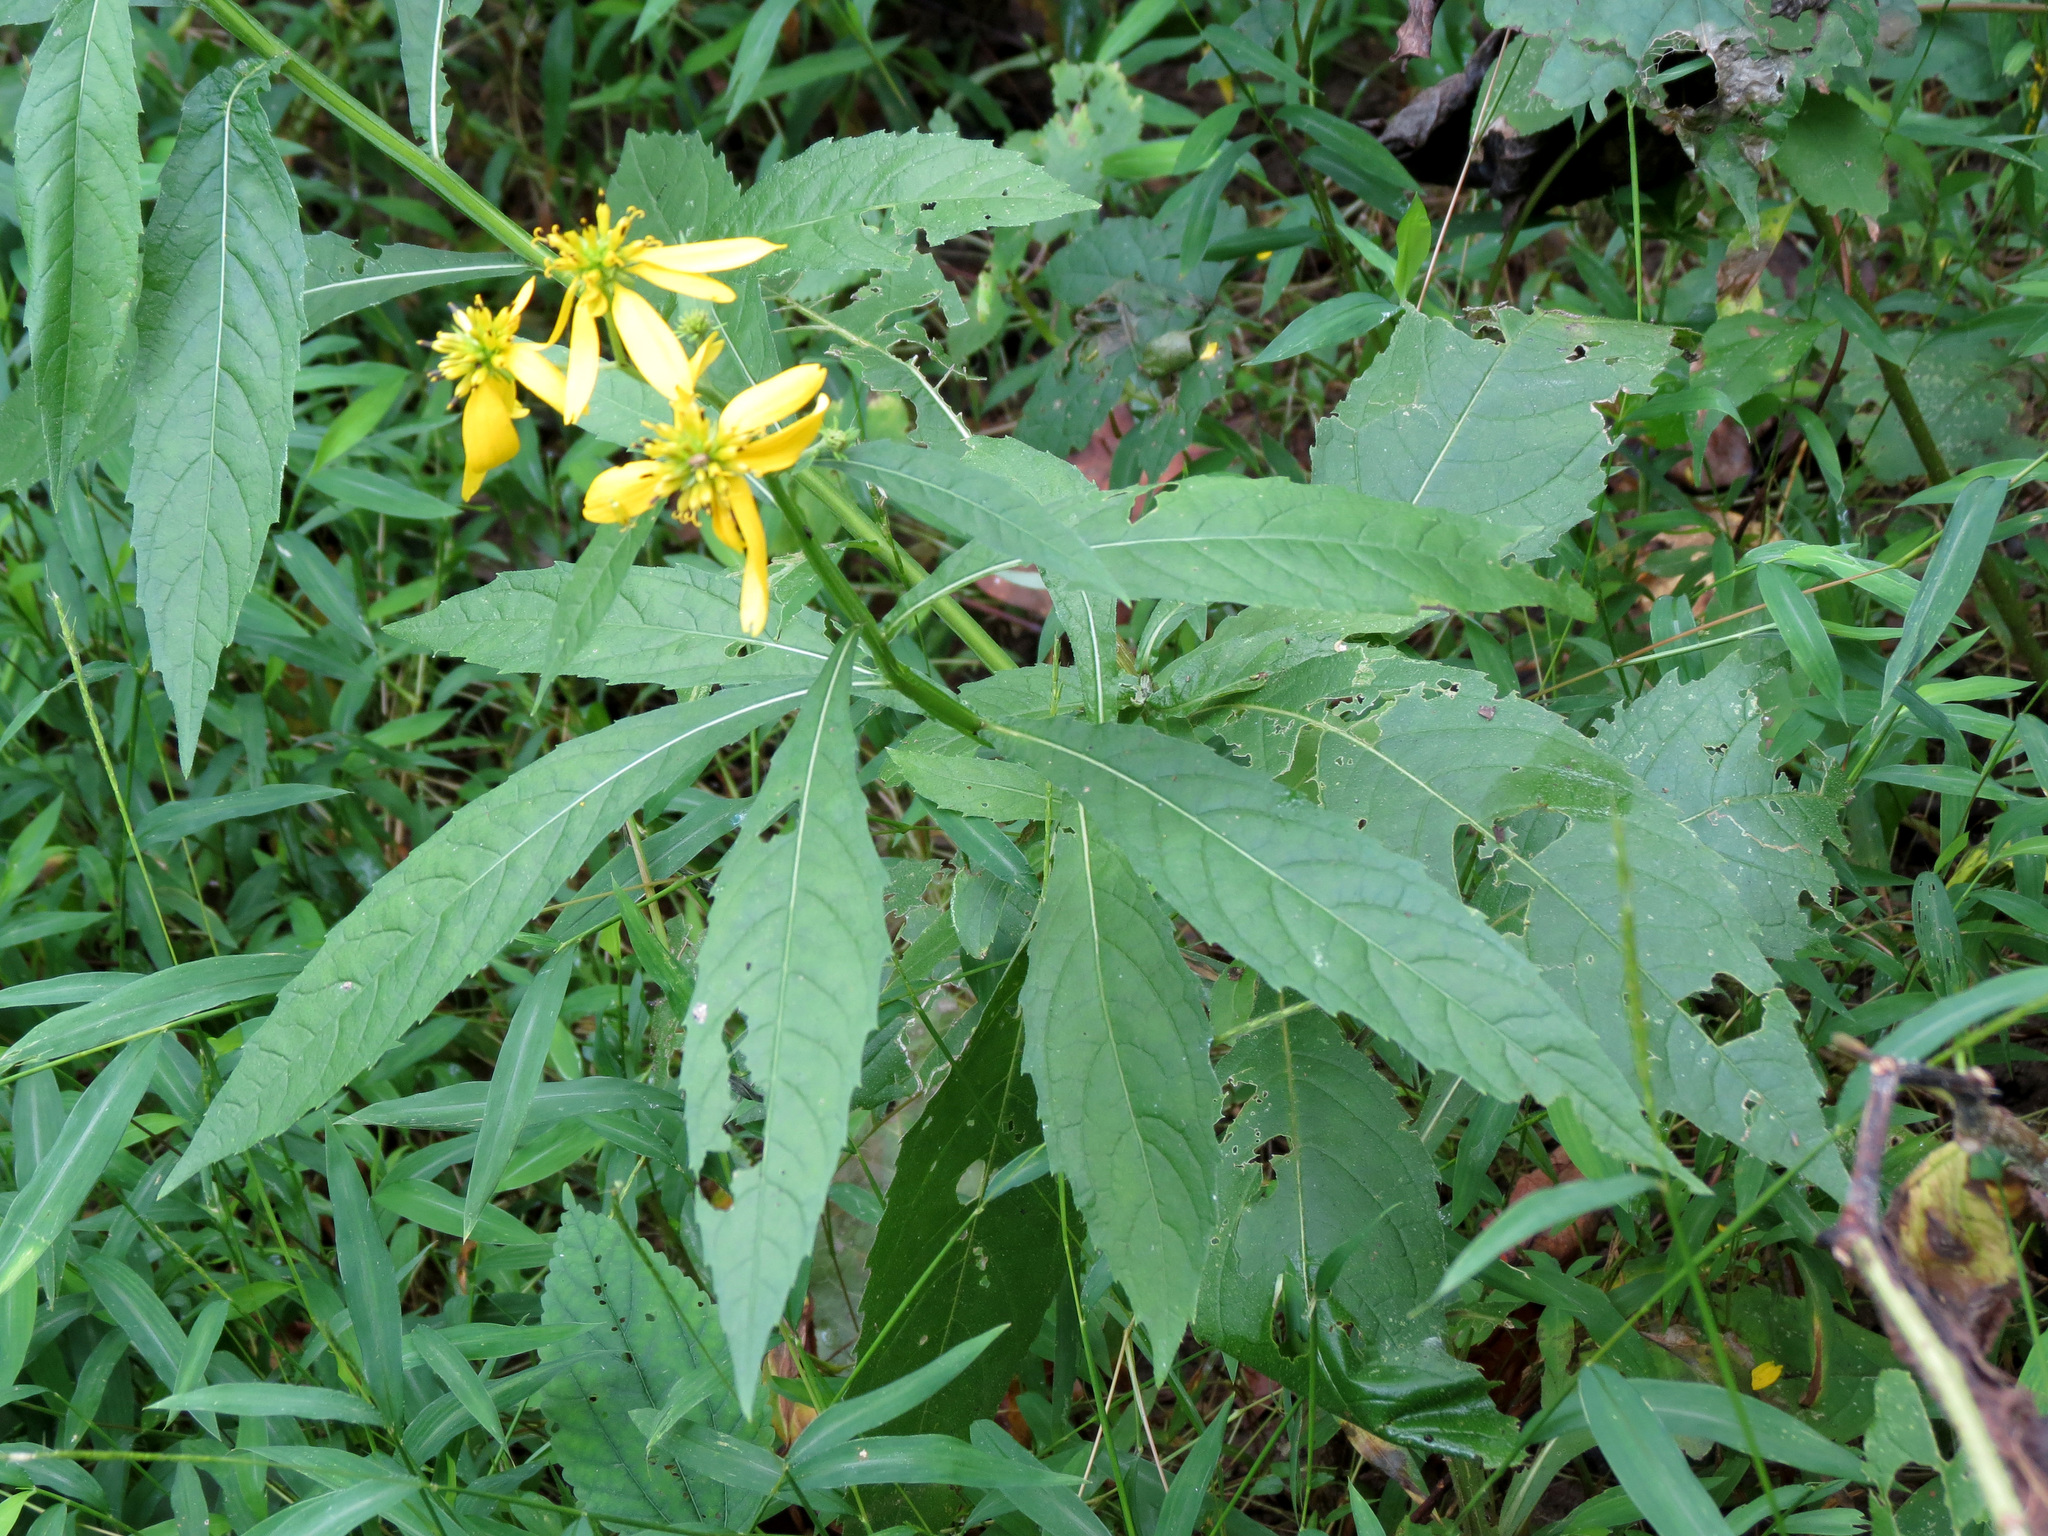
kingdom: Plantae
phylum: Tracheophyta
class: Magnoliopsida
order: Asterales
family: Asteraceae
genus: Verbesina
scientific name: Verbesina alternifolia
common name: Wingstem
